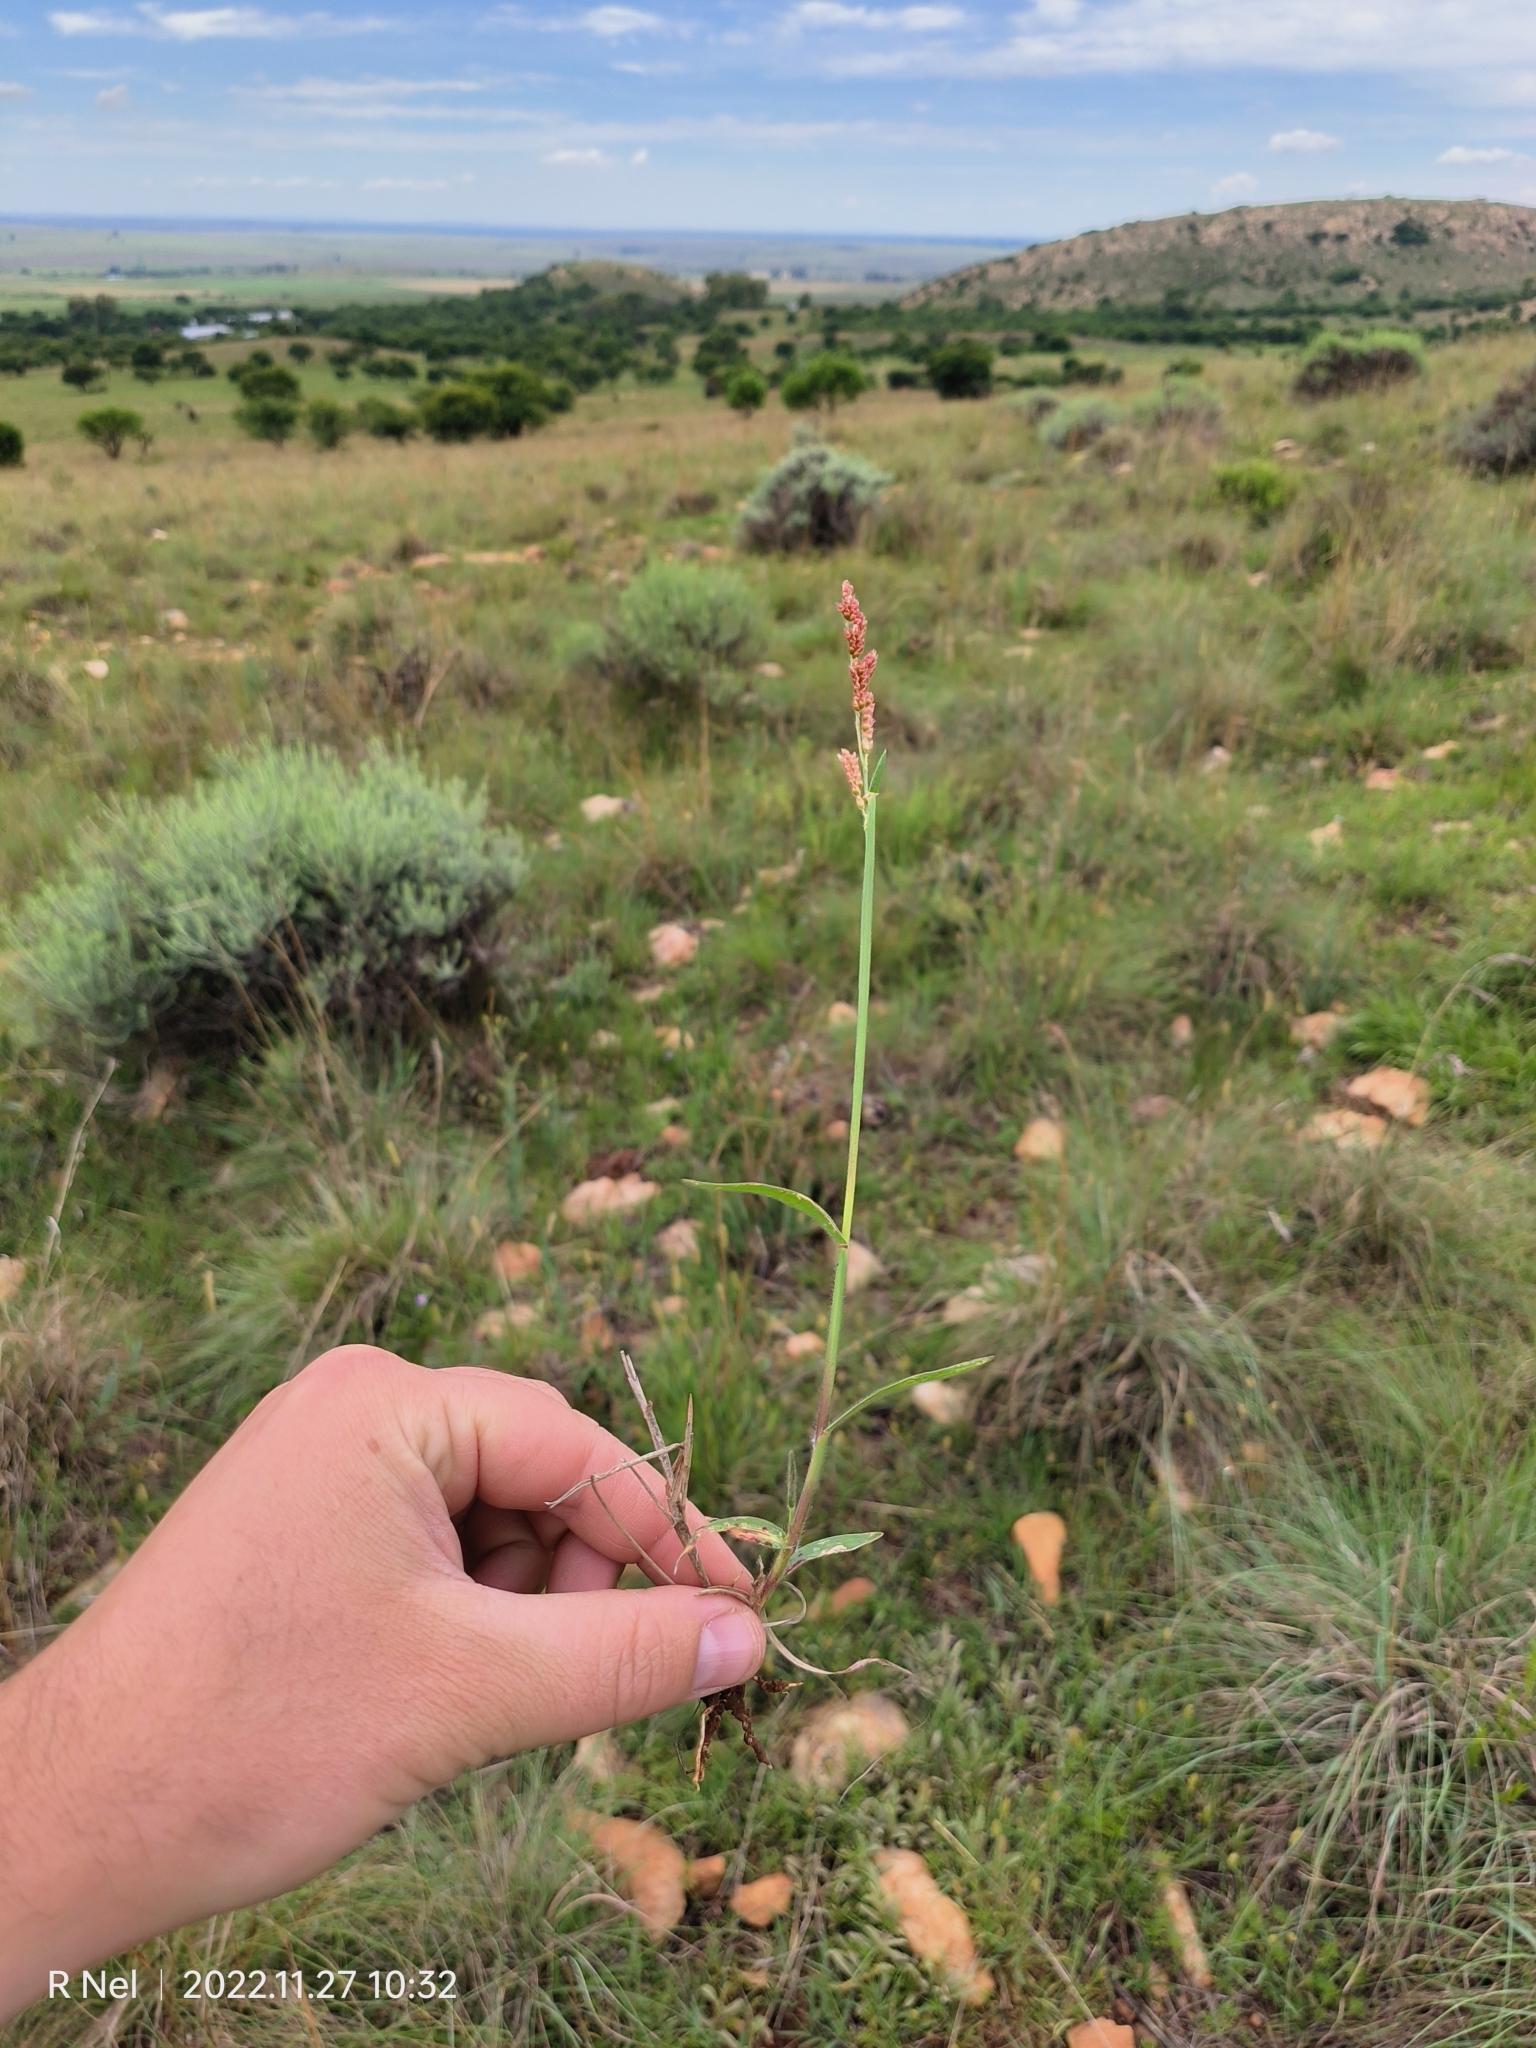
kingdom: Plantae
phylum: Tracheophyta
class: Liliopsida
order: Poales
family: Poaceae
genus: Urochloa
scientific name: Urochloa serrata
